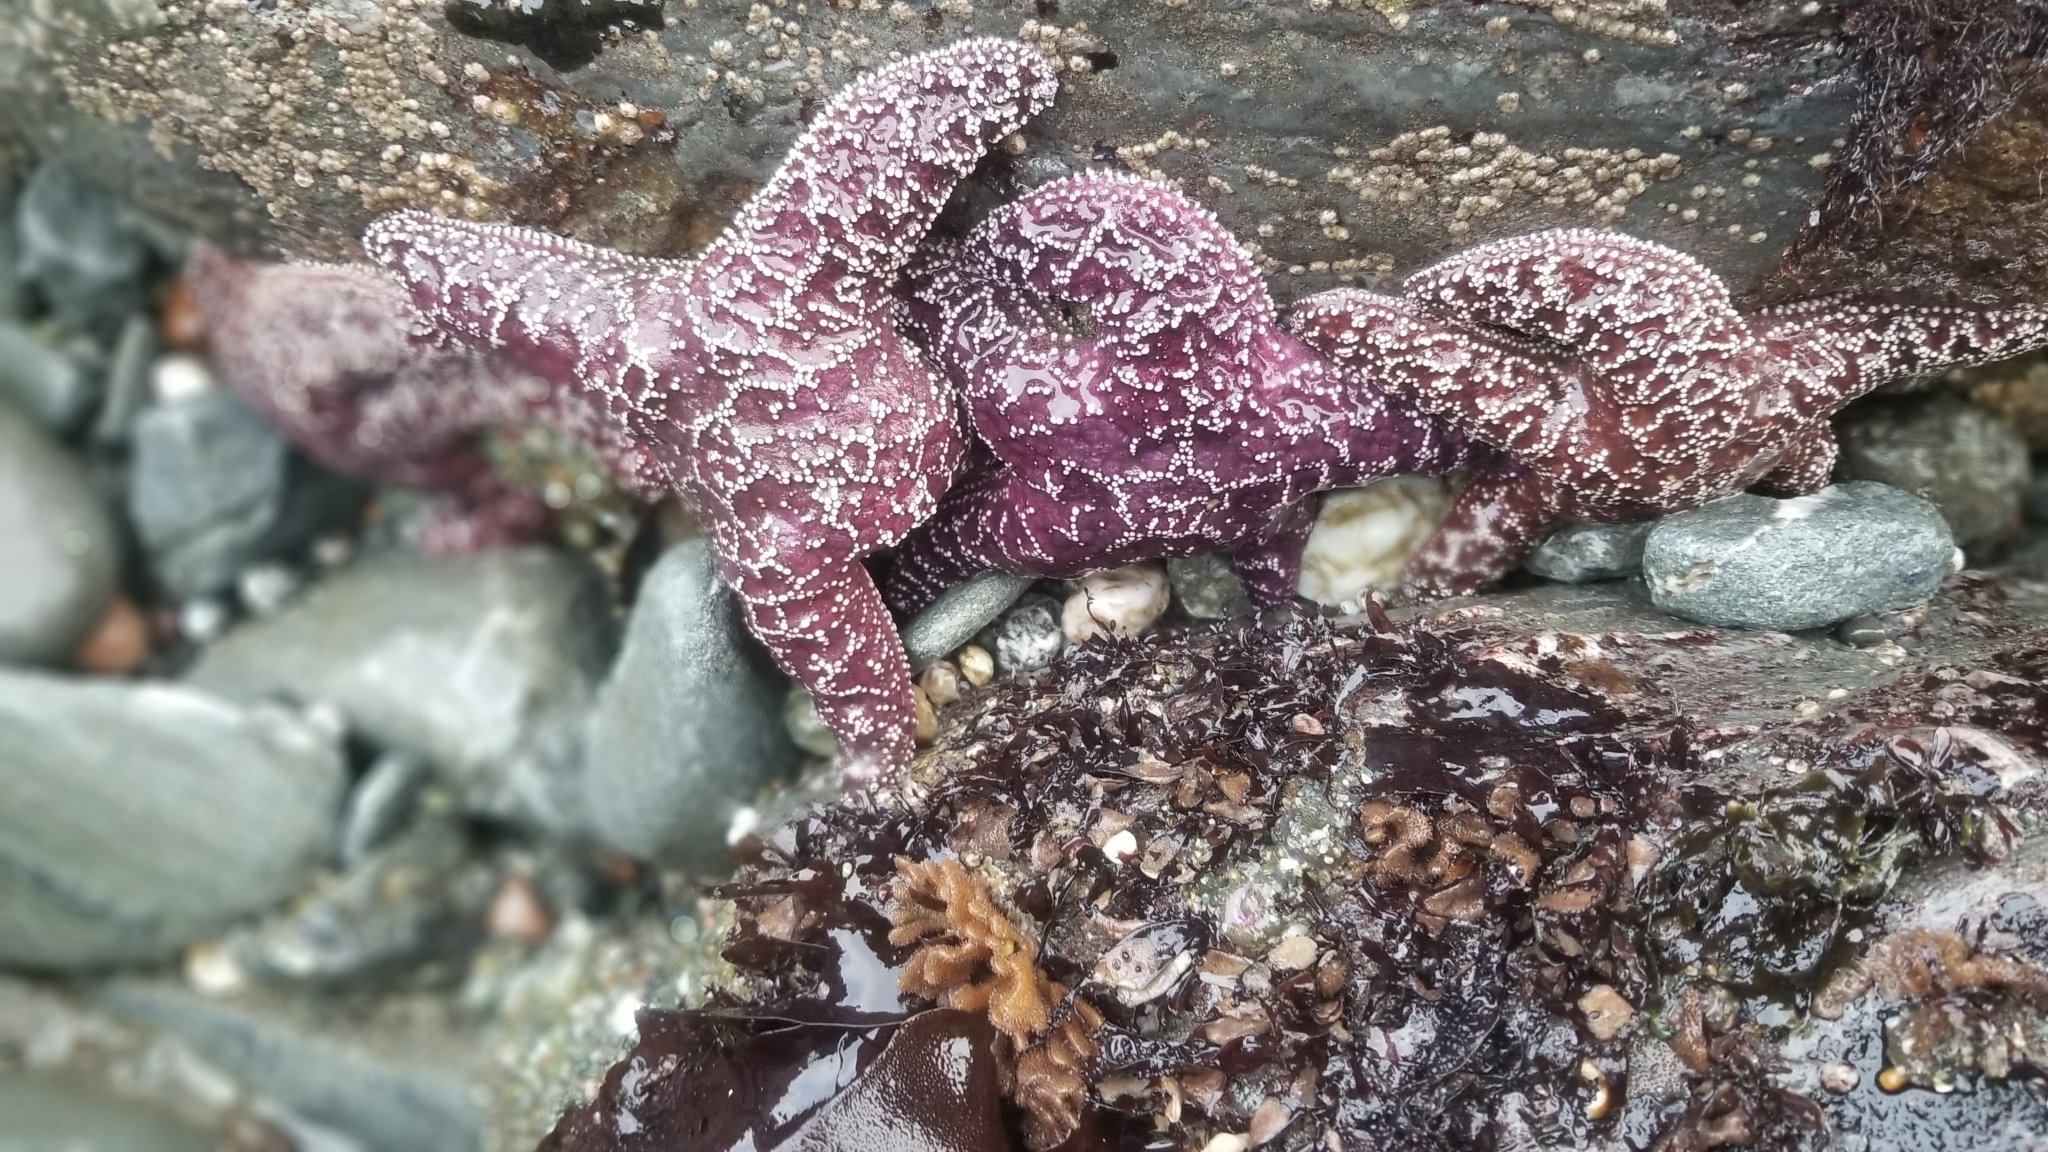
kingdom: Animalia
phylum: Echinodermata
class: Asteroidea
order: Forcipulatida
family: Asteriidae
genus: Pisaster
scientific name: Pisaster ochraceus
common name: Ochre stars
